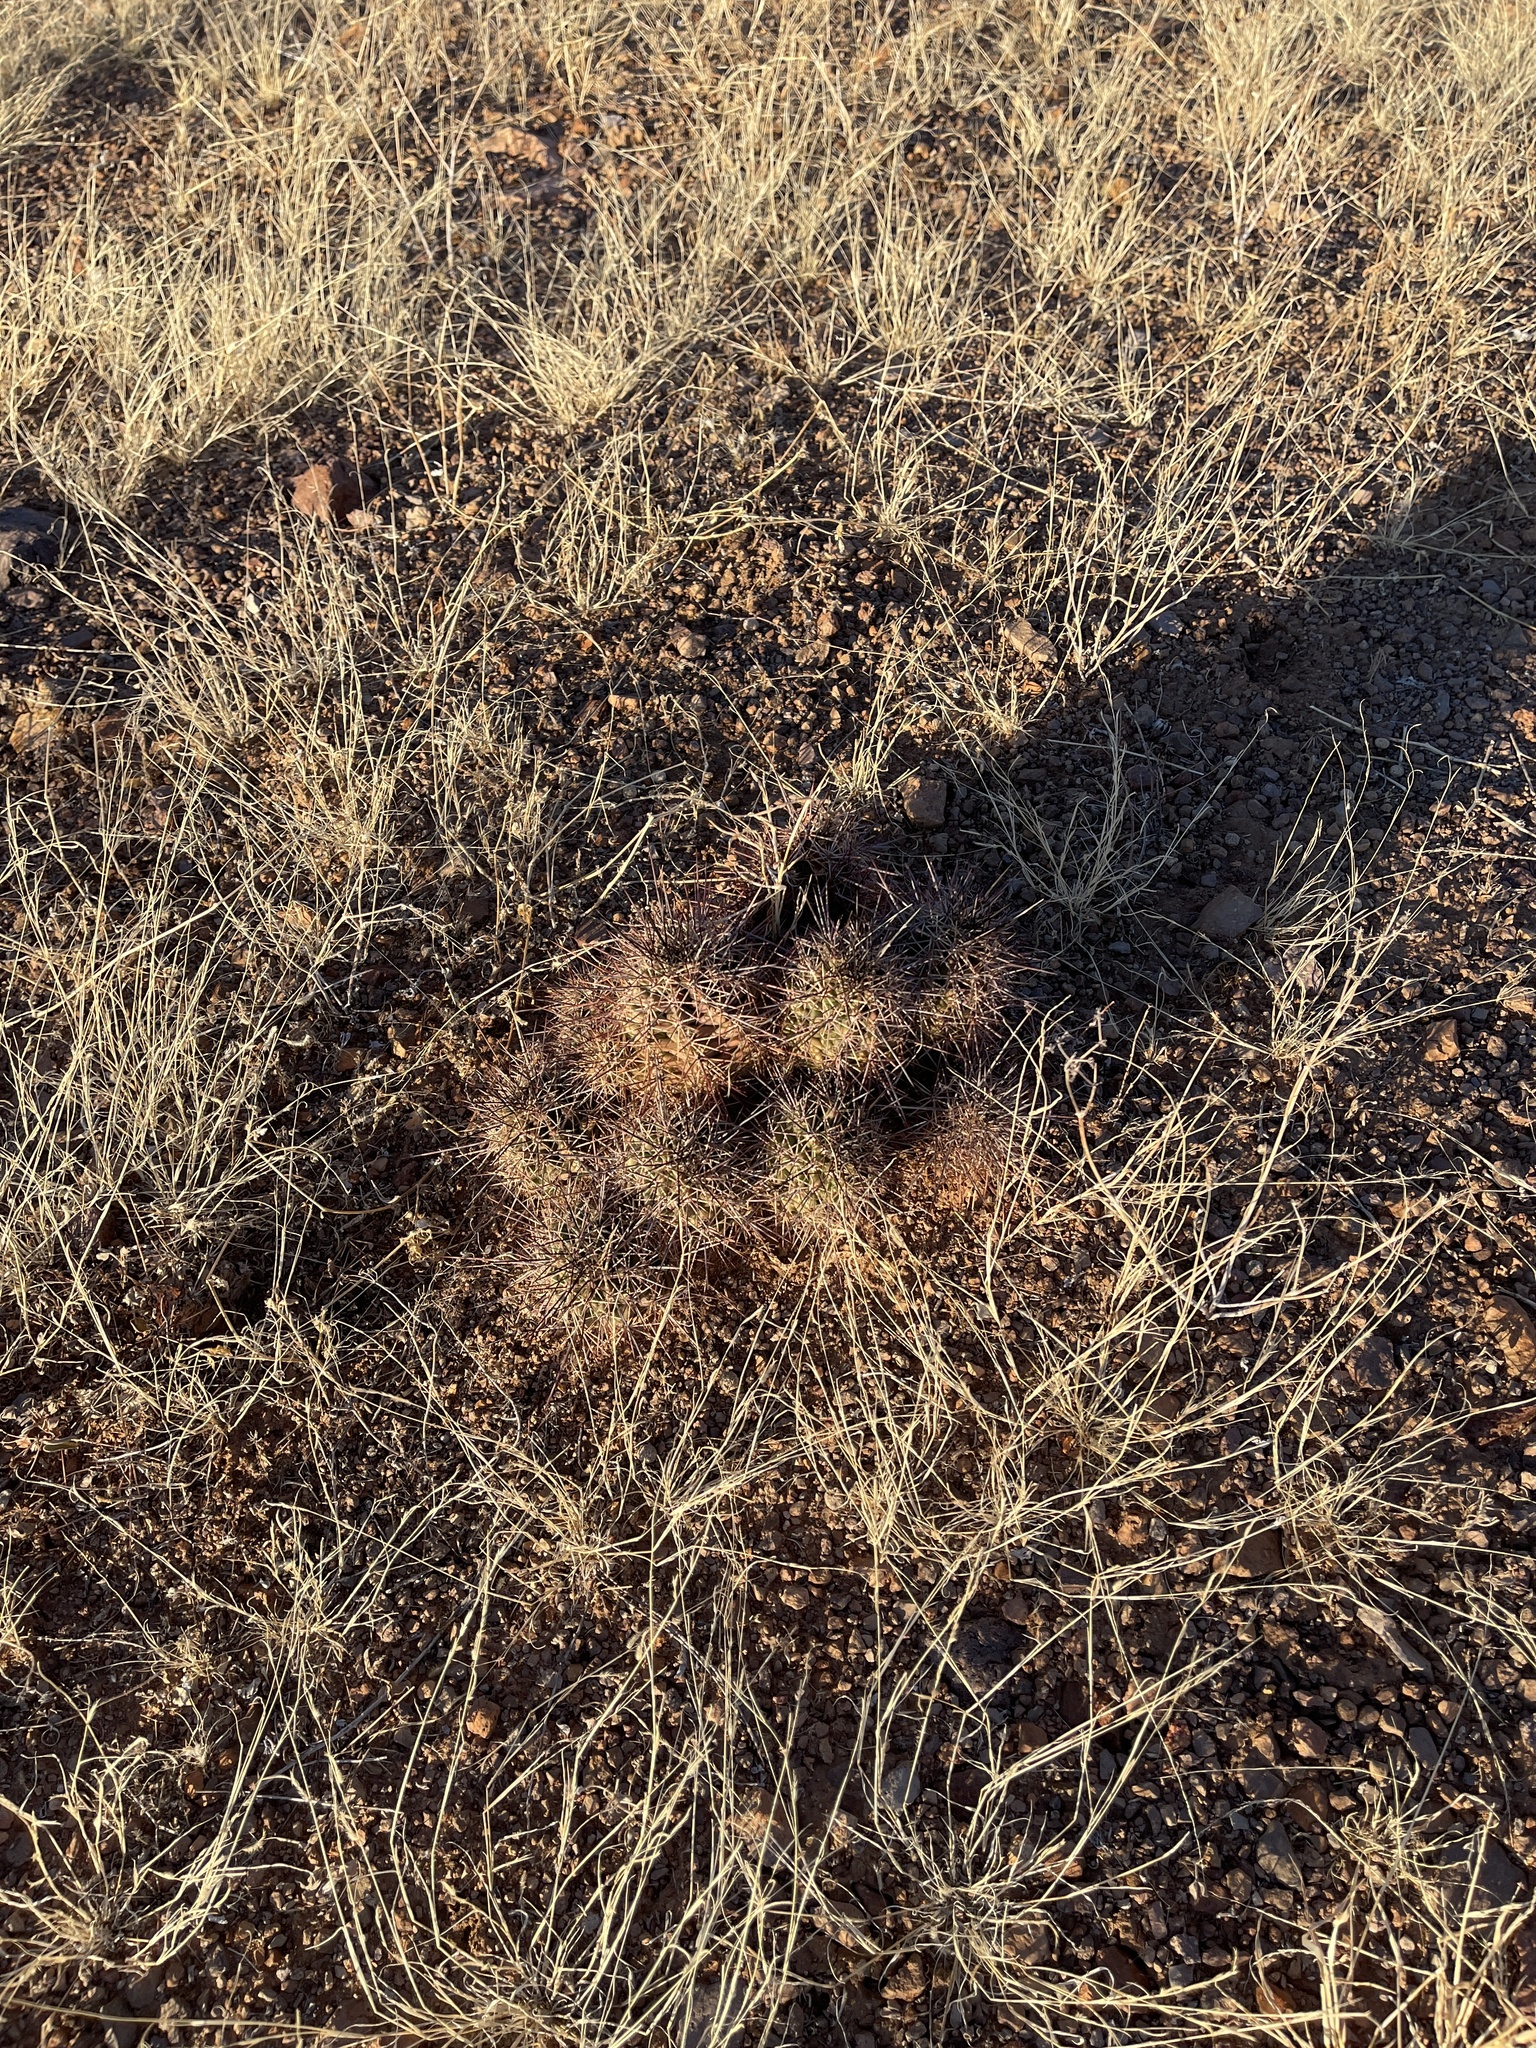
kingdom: Plantae
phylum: Tracheophyta
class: Magnoliopsida
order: Caryophyllales
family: Cactaceae
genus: Echinocereus
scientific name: Echinocereus coccineus
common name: Scarlet hedgehog cactus
